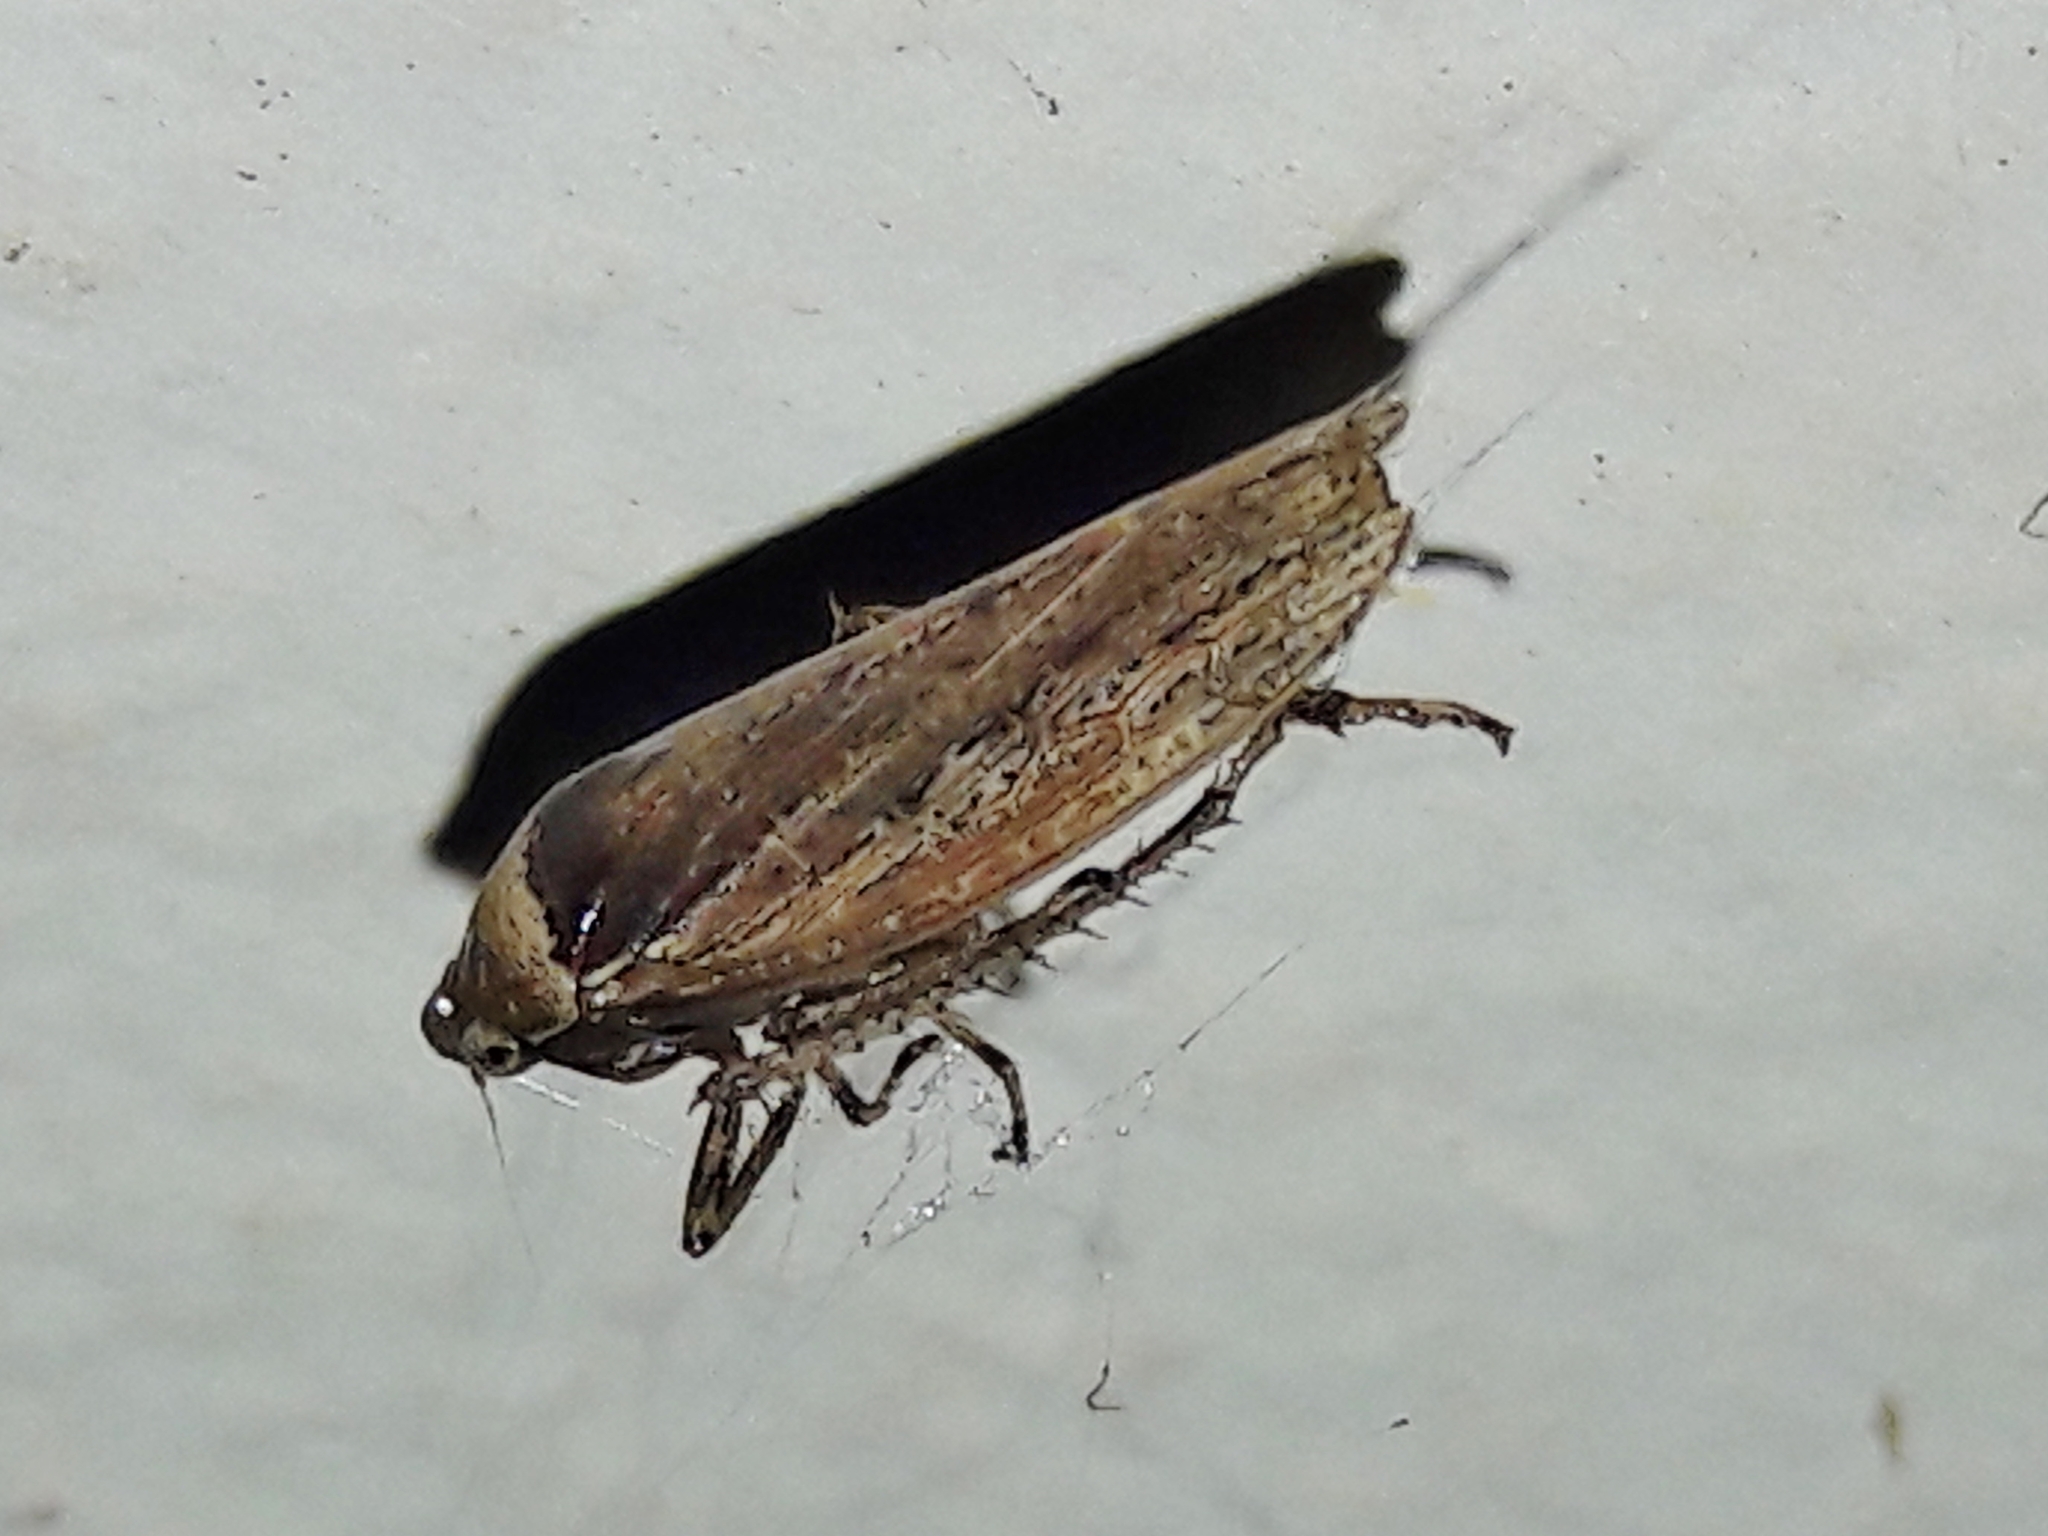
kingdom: Animalia
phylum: Arthropoda
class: Insecta
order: Hemiptera
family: Cicadellidae
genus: Sordana
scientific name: Sordana sordida
